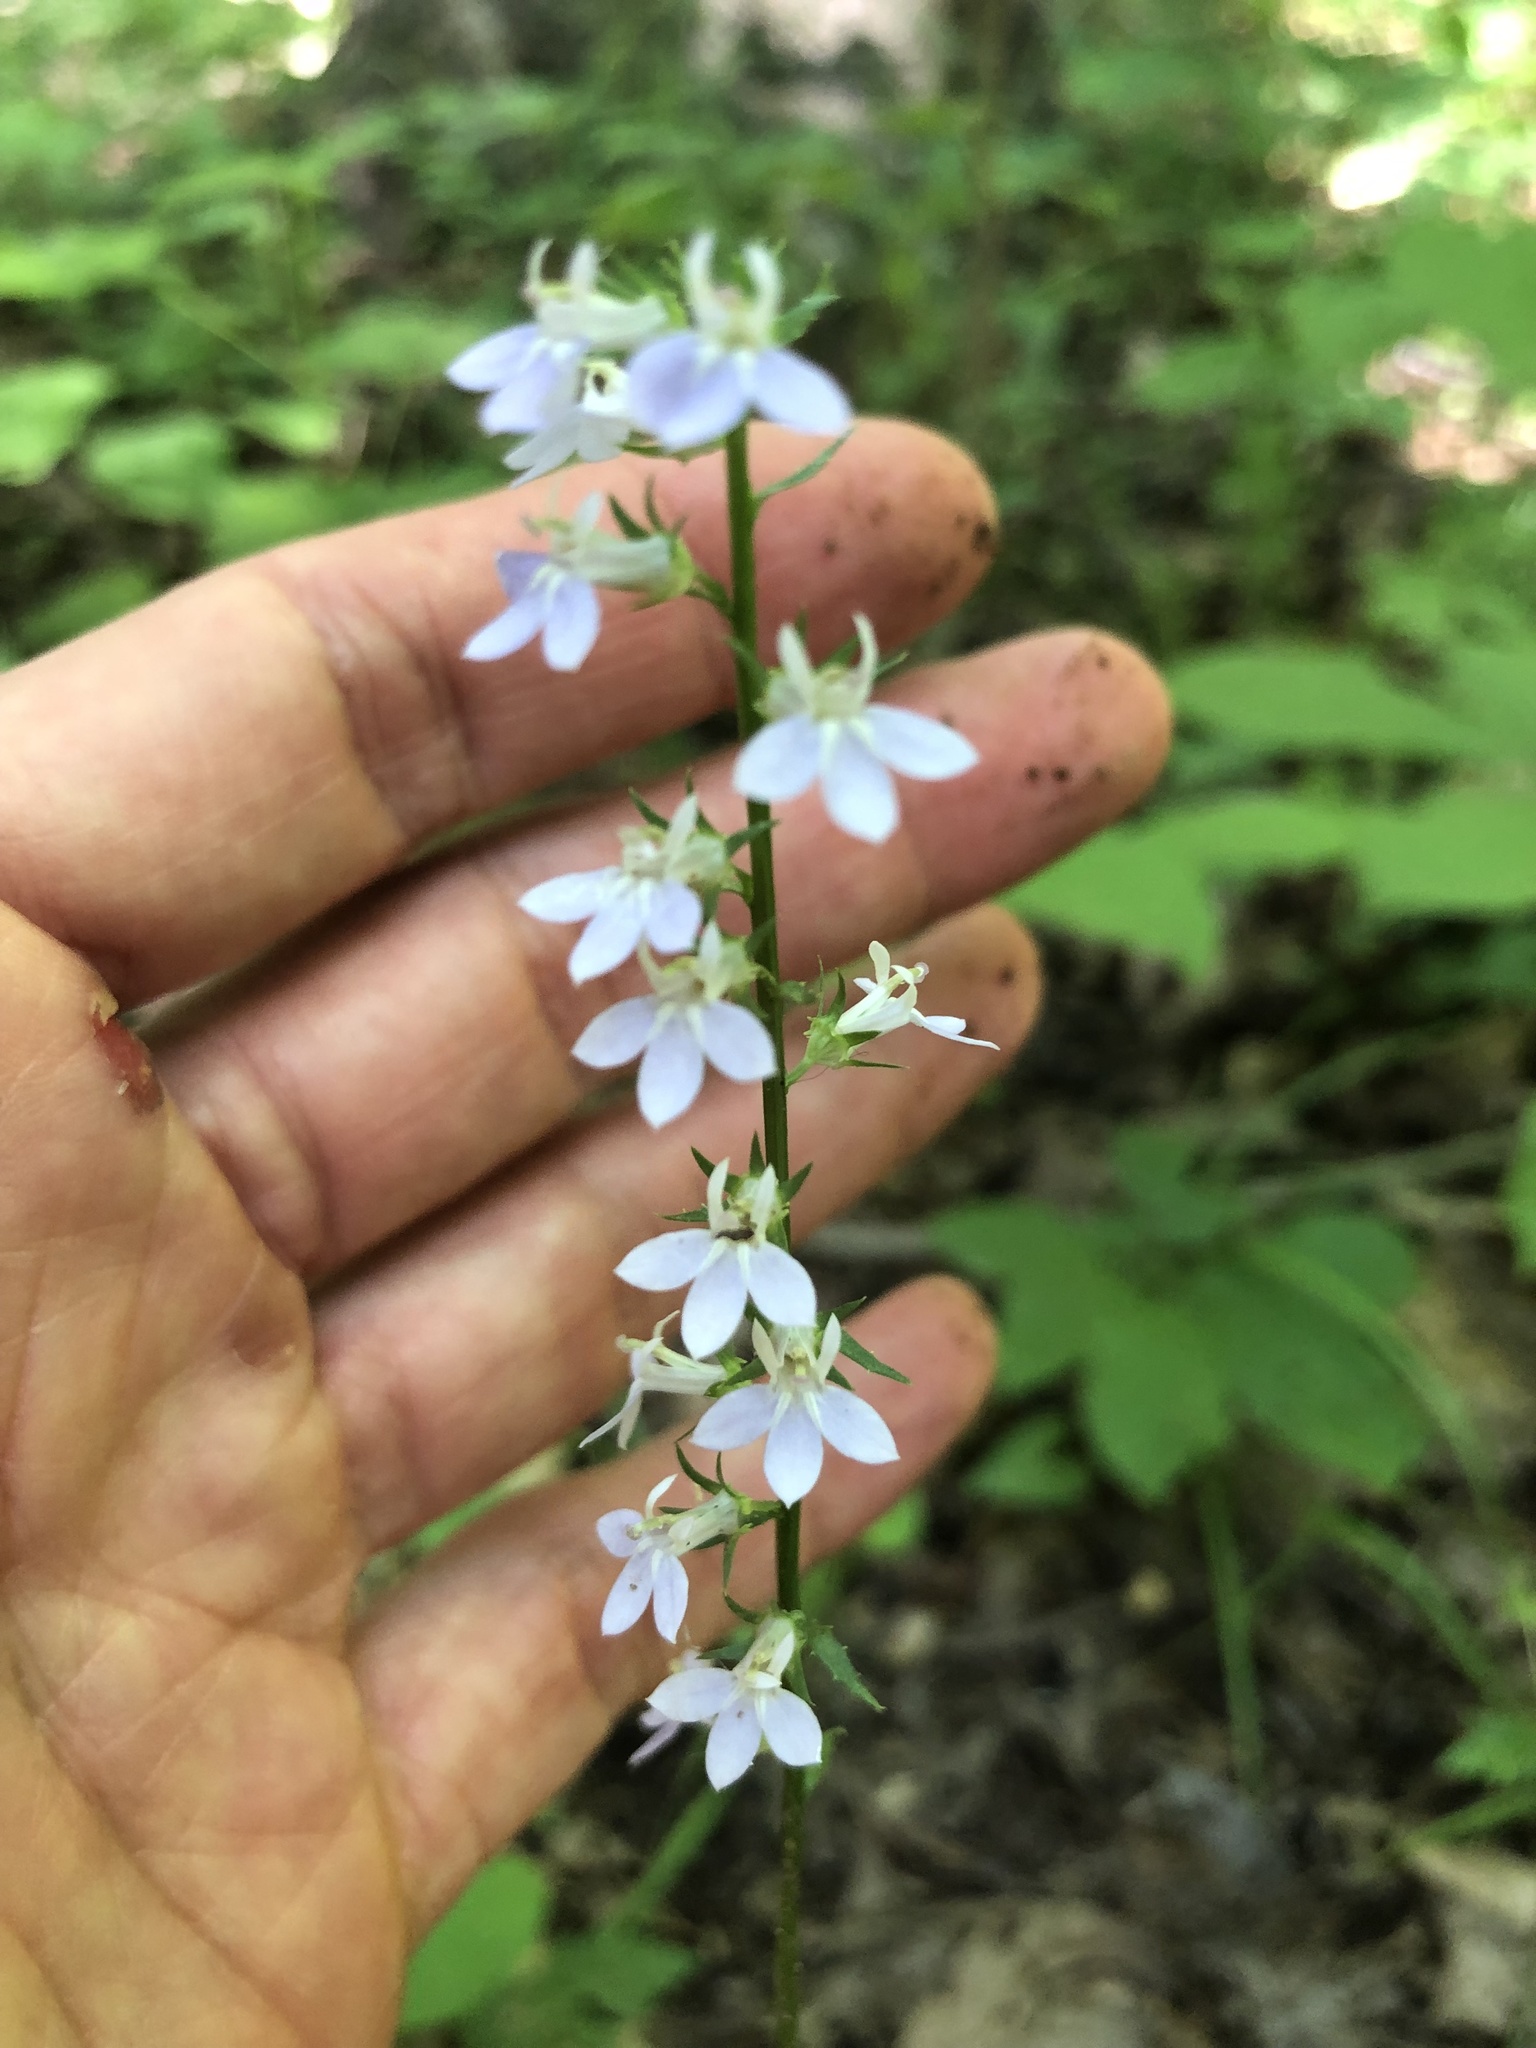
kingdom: Plantae
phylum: Tracheophyta
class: Magnoliopsida
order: Asterales
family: Campanulaceae
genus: Lobelia
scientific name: Lobelia spicata
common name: Pale-spike lobelia
